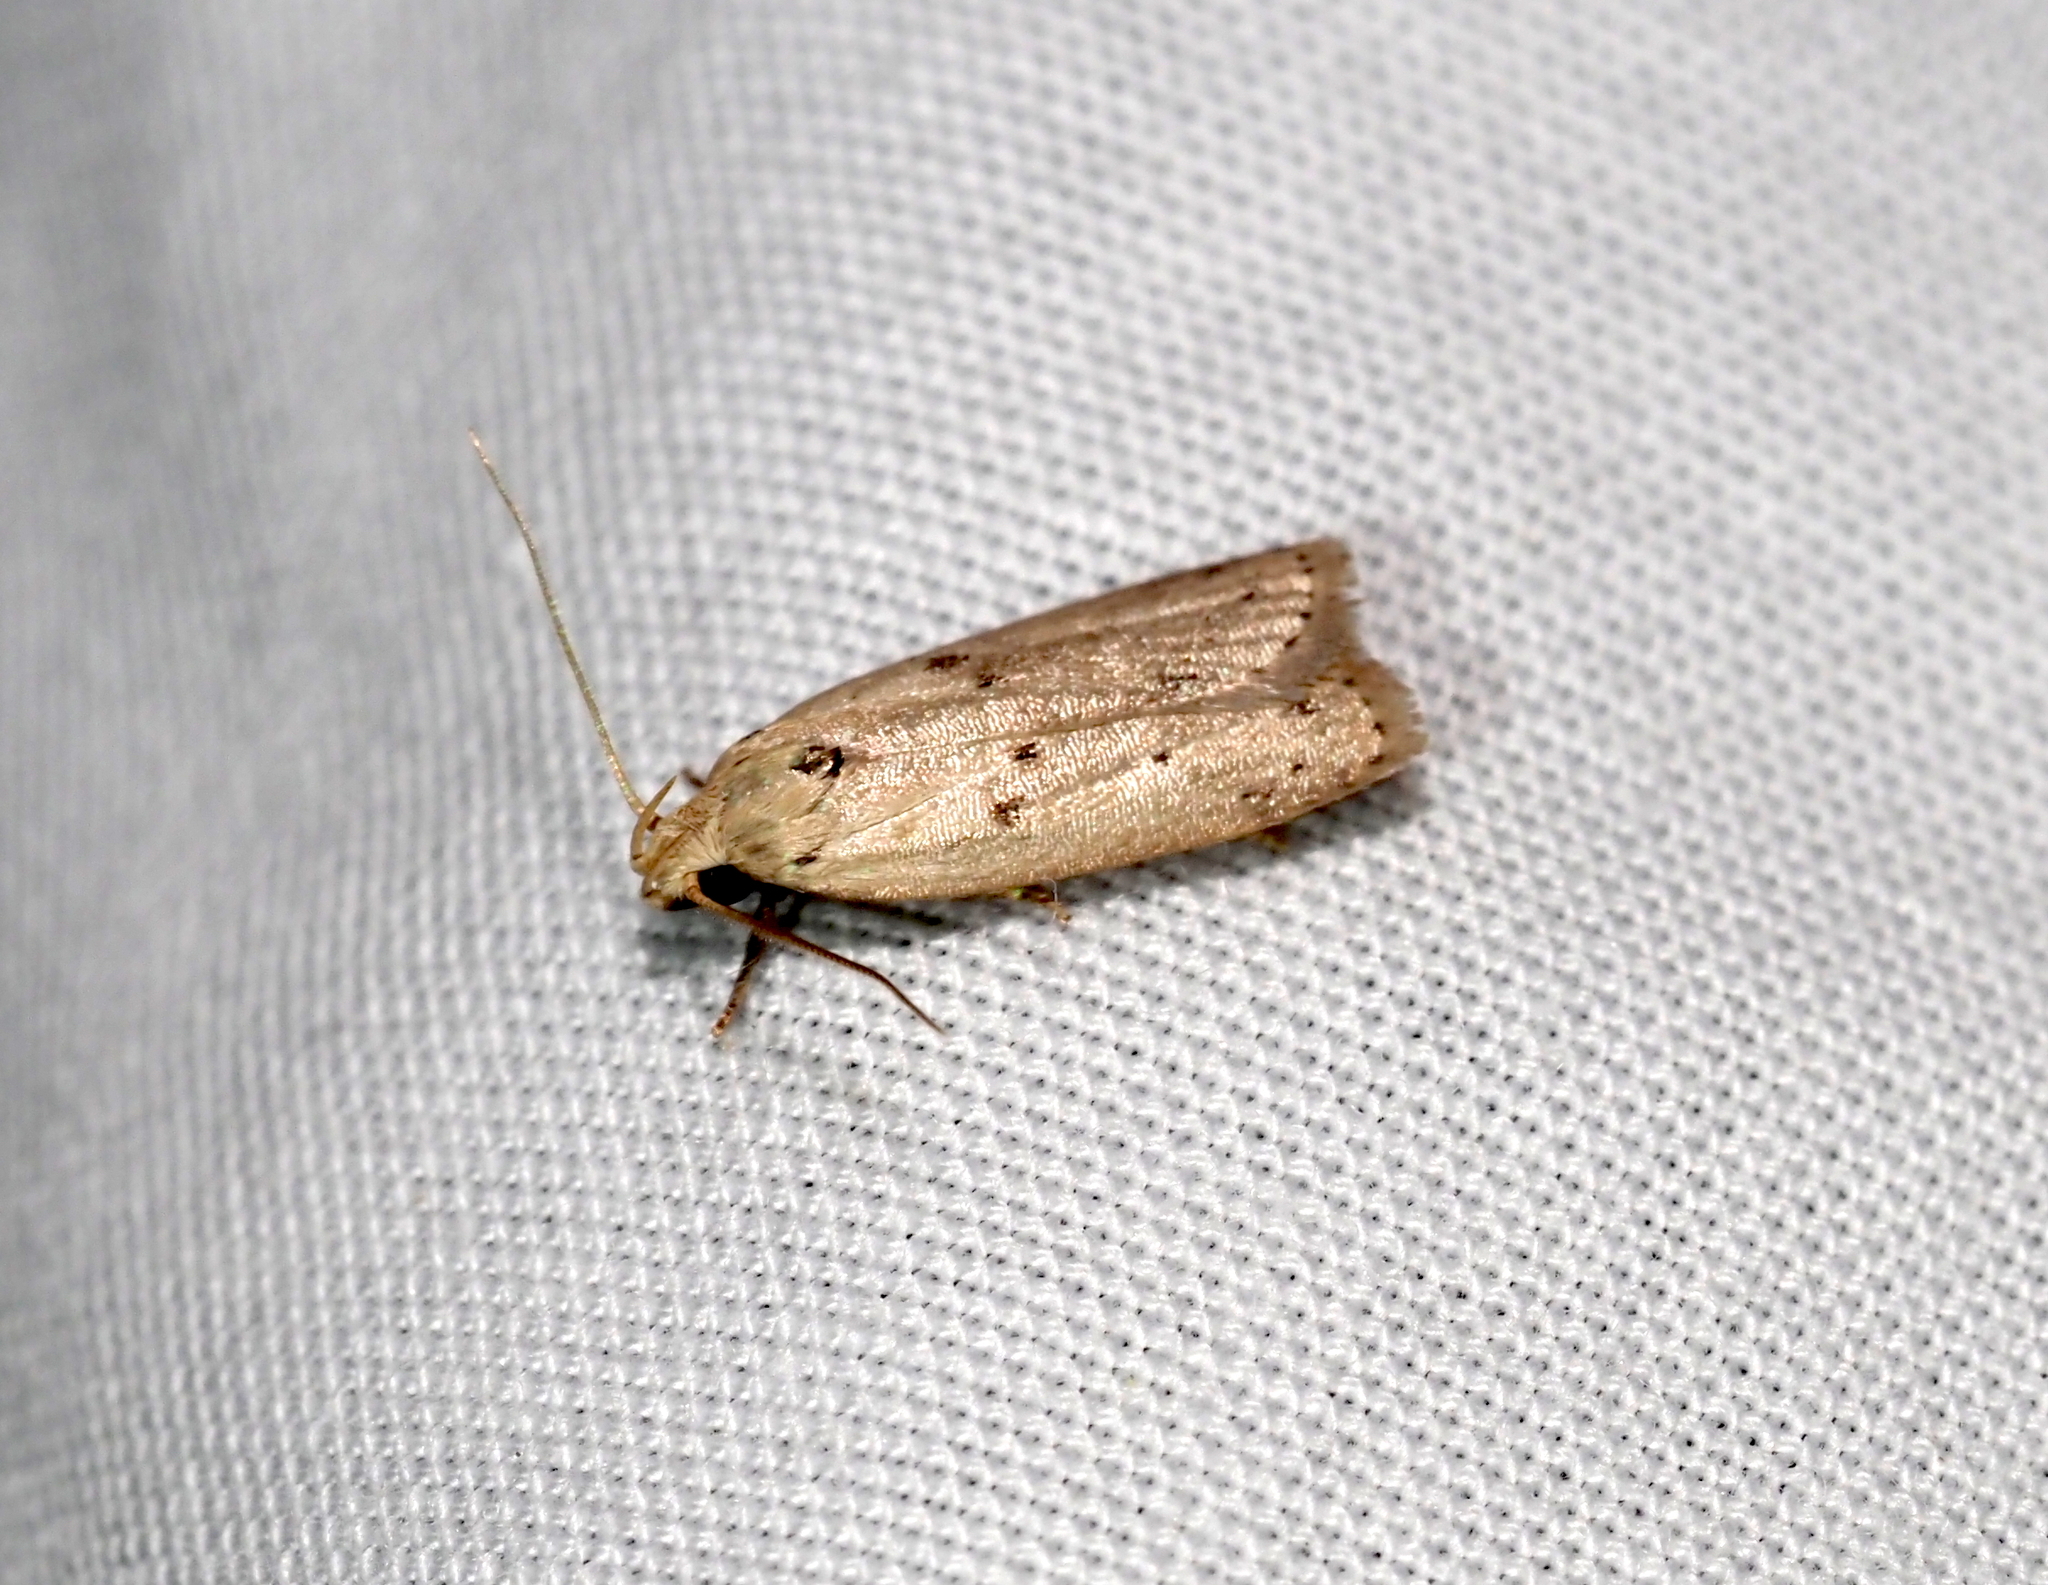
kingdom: Animalia
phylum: Arthropoda
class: Insecta
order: Lepidoptera
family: Peleopodidae
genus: Scythropiodes
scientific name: Scythropiodes issikii
